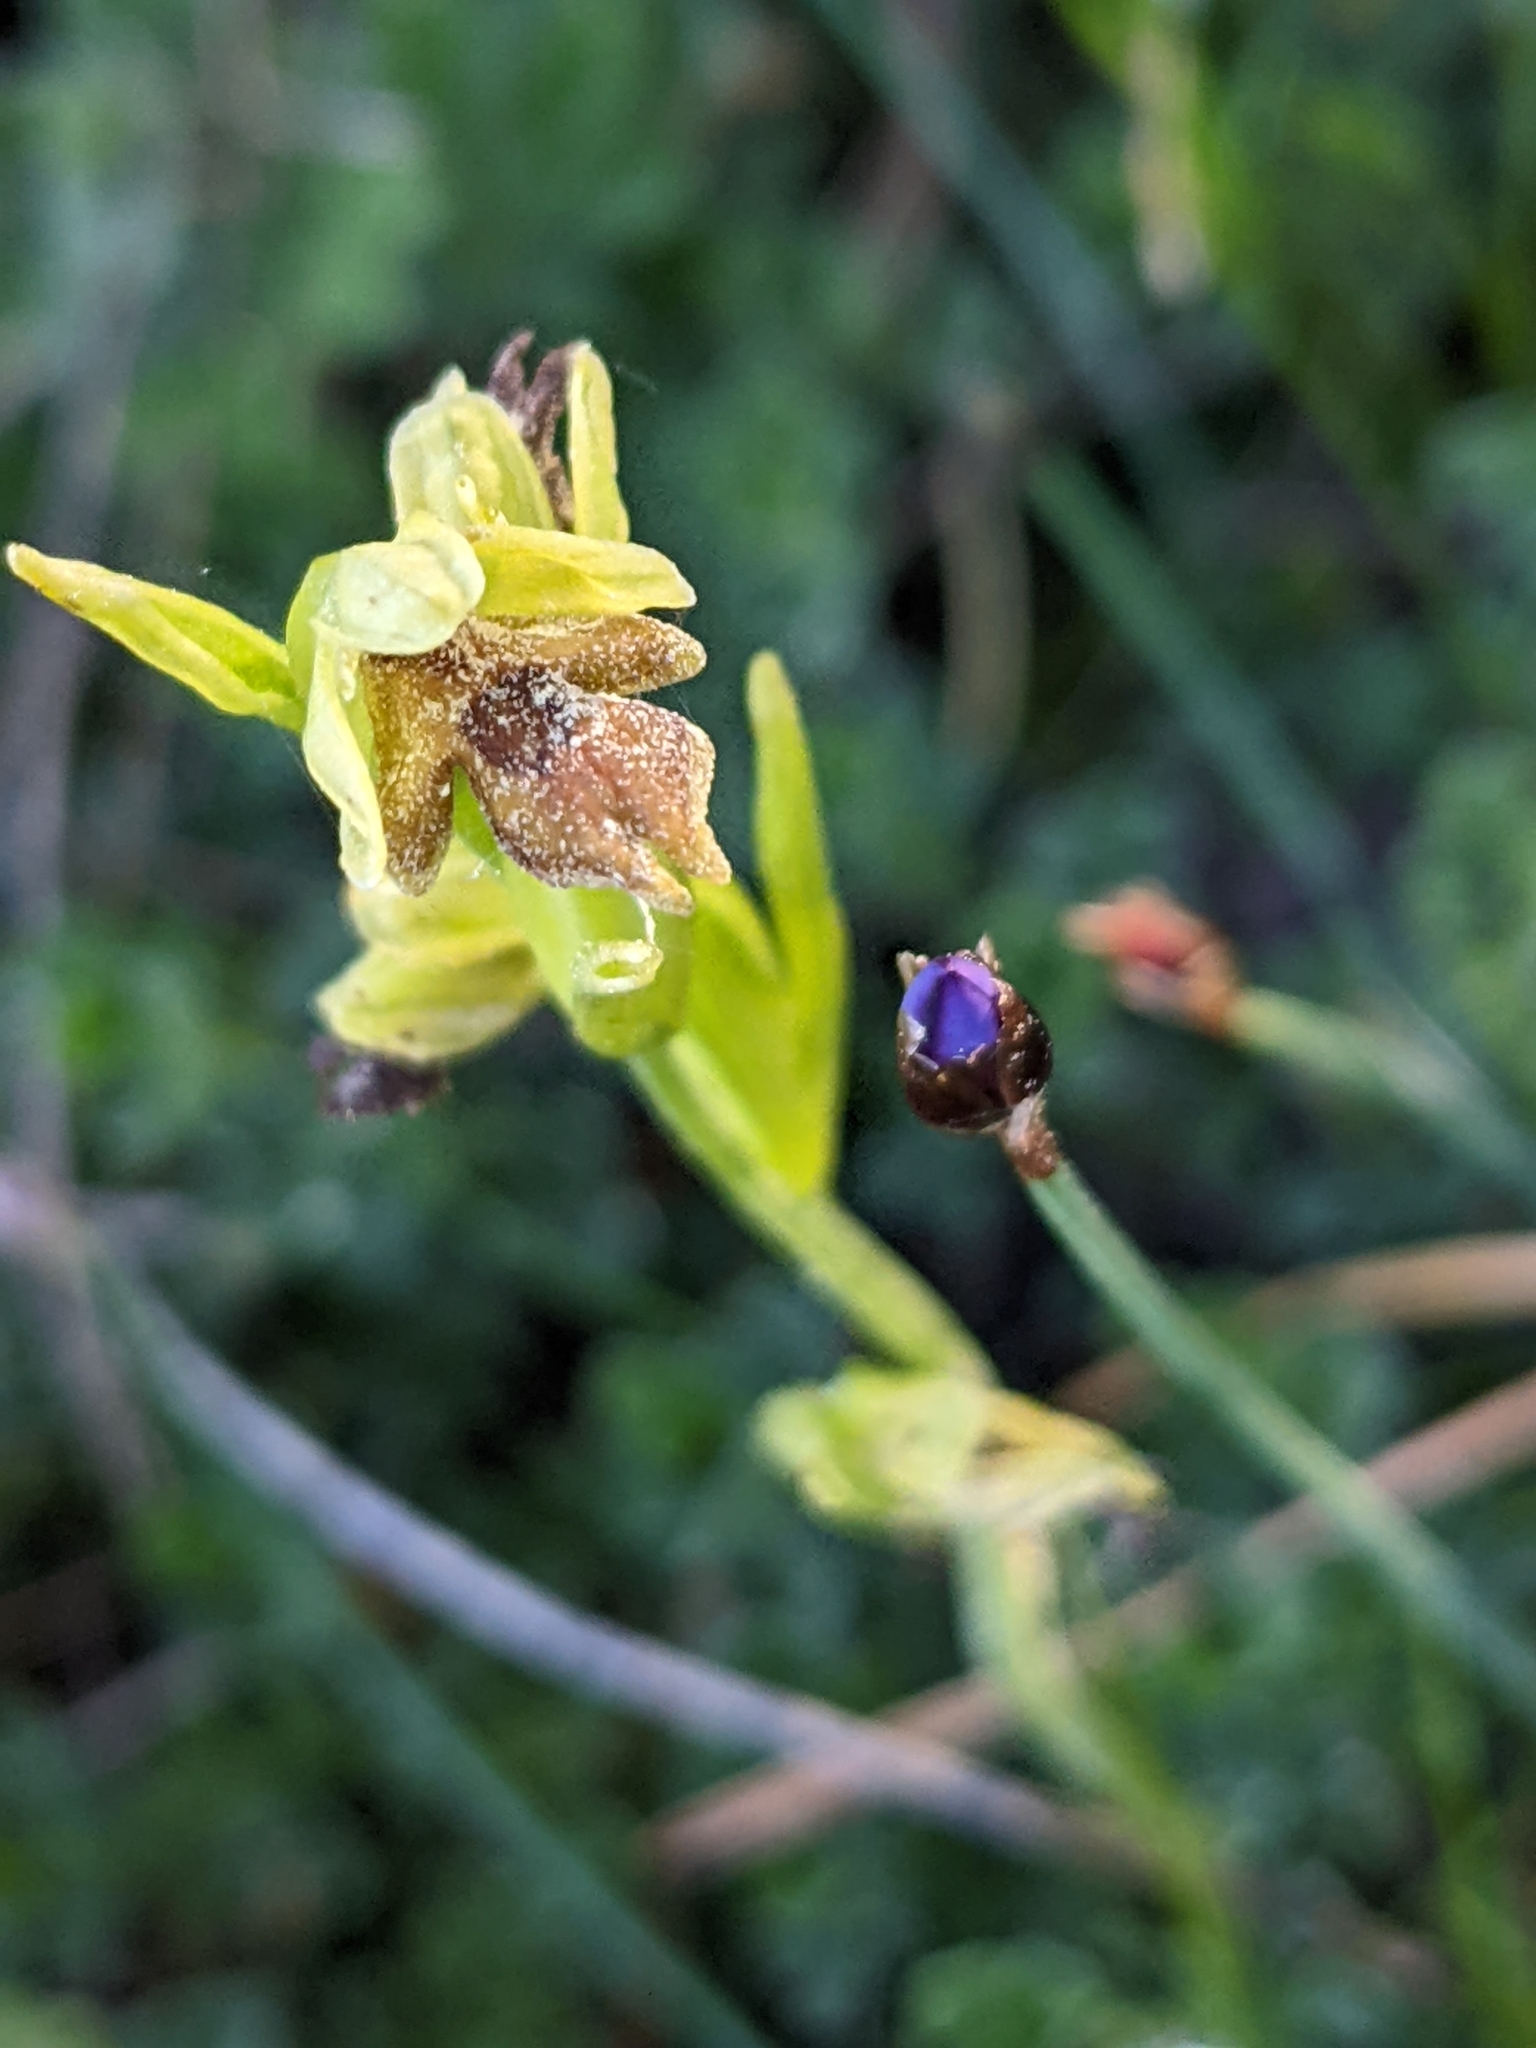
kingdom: Plantae
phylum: Tracheophyta
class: Liliopsida
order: Asparagales
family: Orchidaceae
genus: Ophrys
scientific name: Ophrys insectifera
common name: Fly orchid
